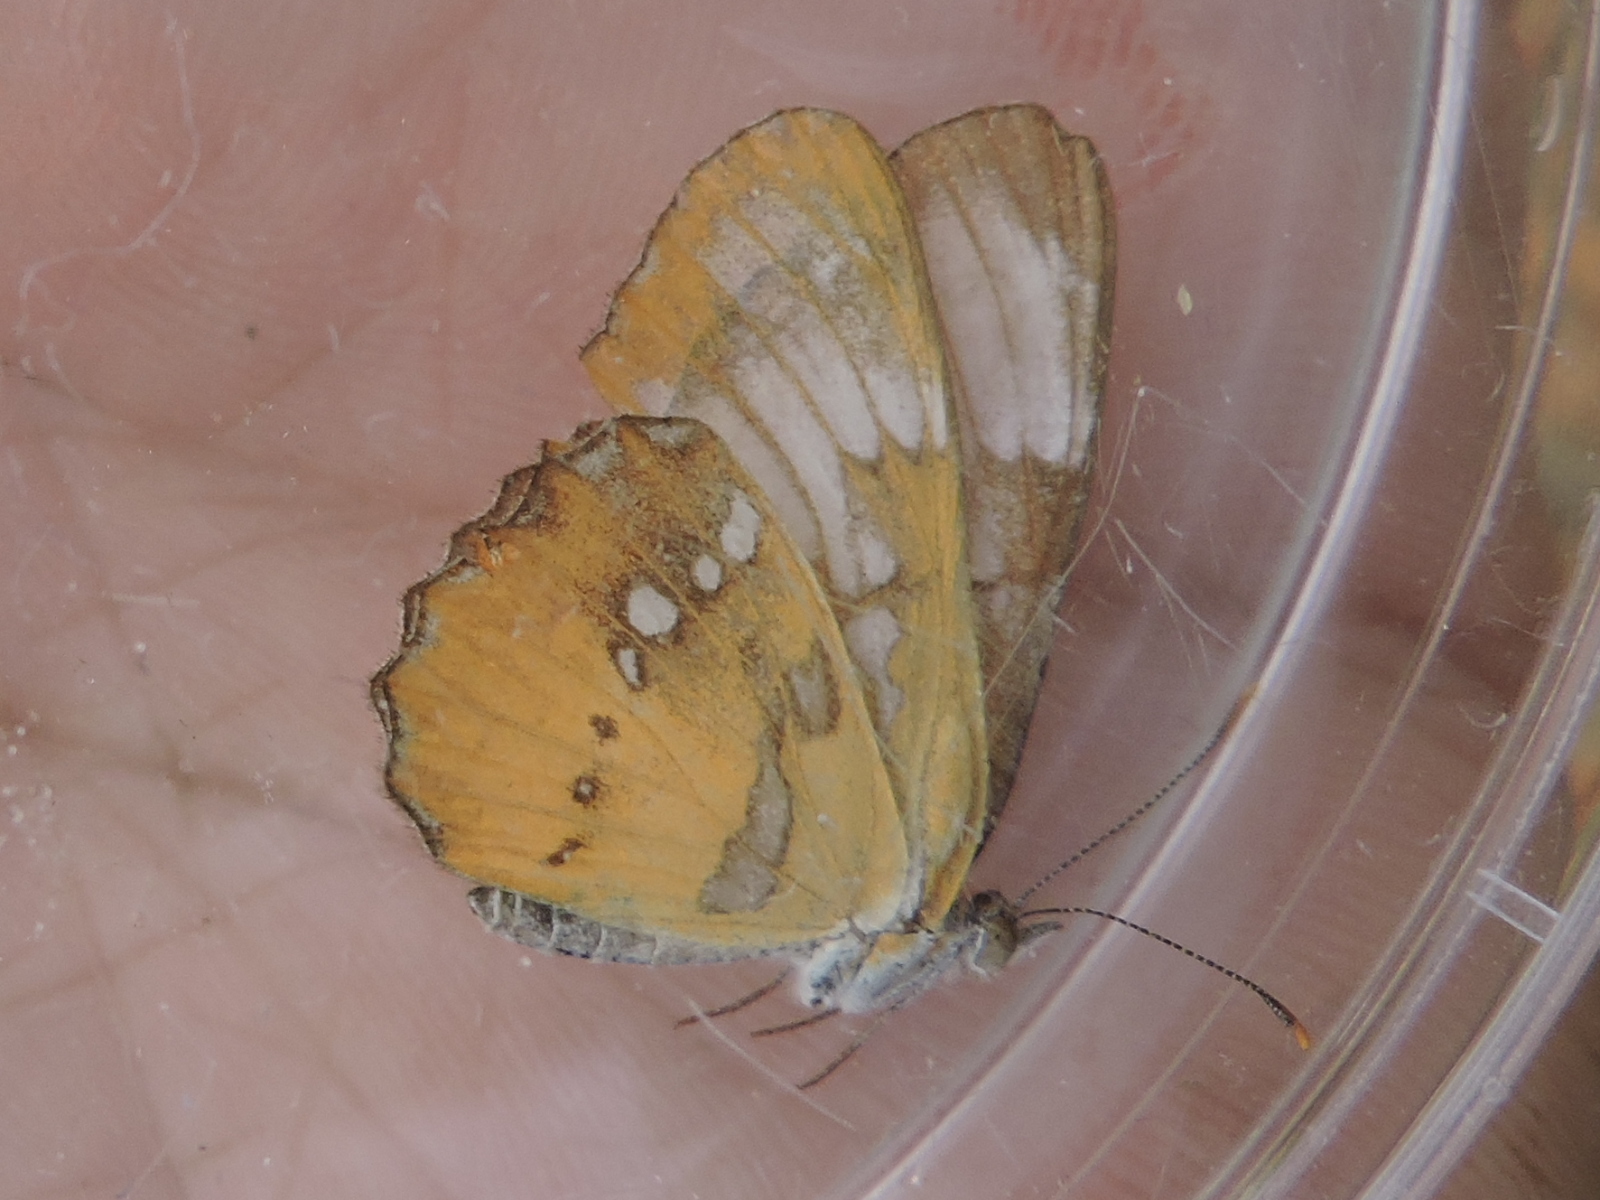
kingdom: Animalia
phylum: Arthropoda
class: Insecta
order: Lepidoptera
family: Nymphalidae
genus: Mestra
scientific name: Mestra amymone
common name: Common mestra
